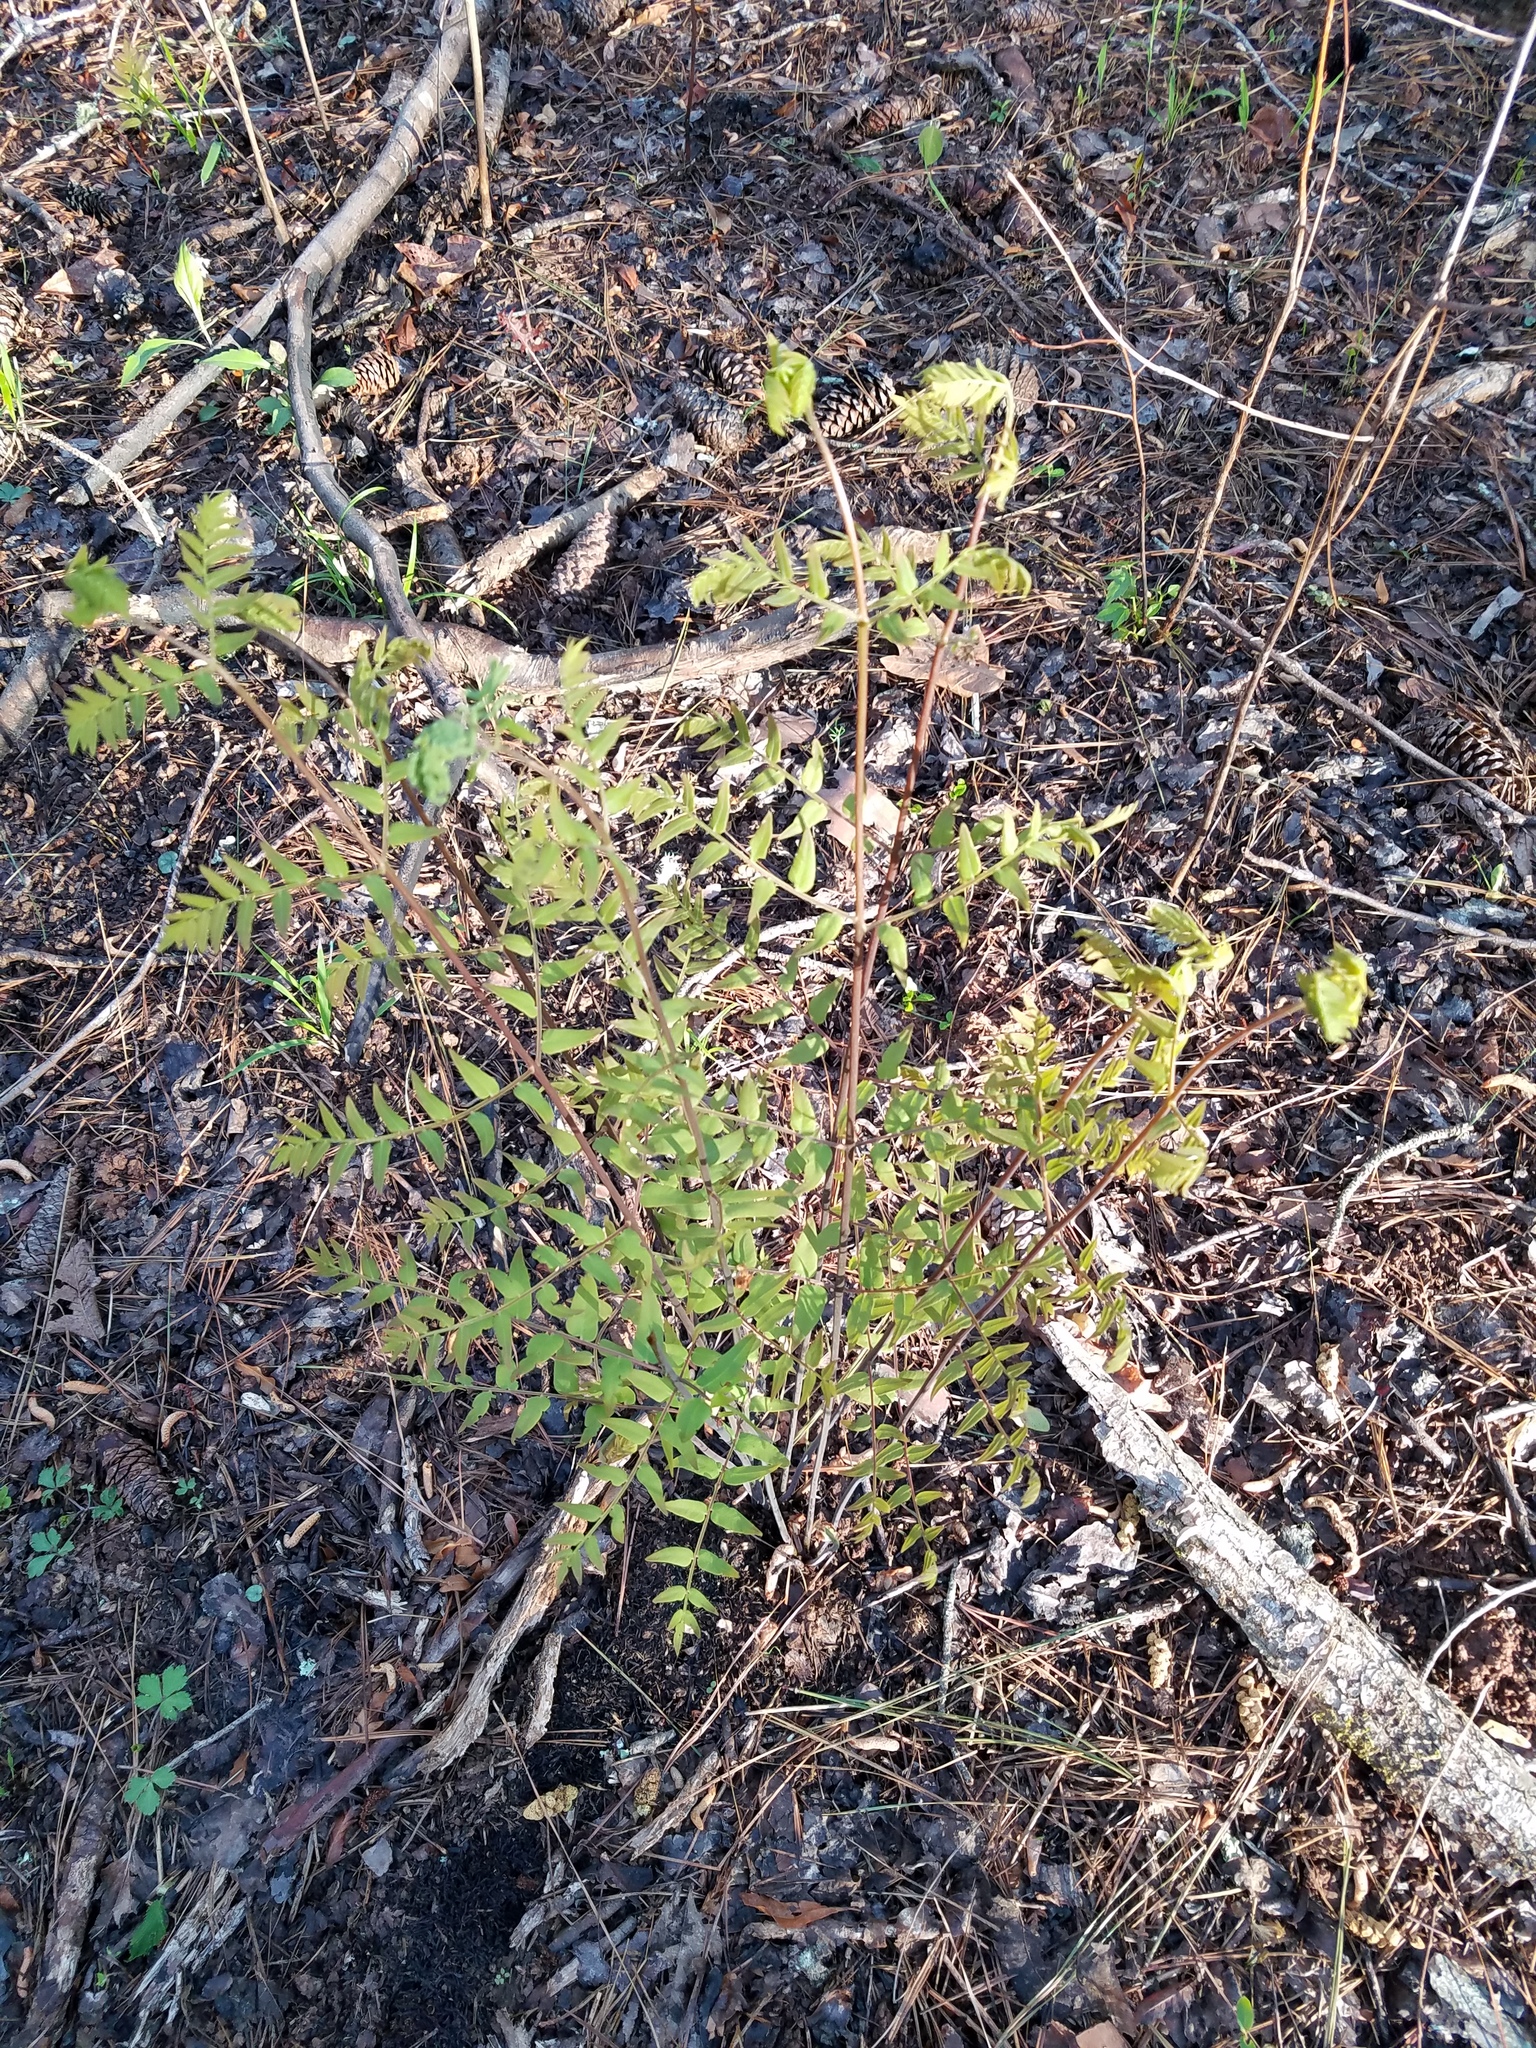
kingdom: Plantae
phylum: Tracheophyta
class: Polypodiopsida
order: Osmundales
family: Osmundaceae
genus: Osmunda
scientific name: Osmunda spectabilis
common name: American royal fern
